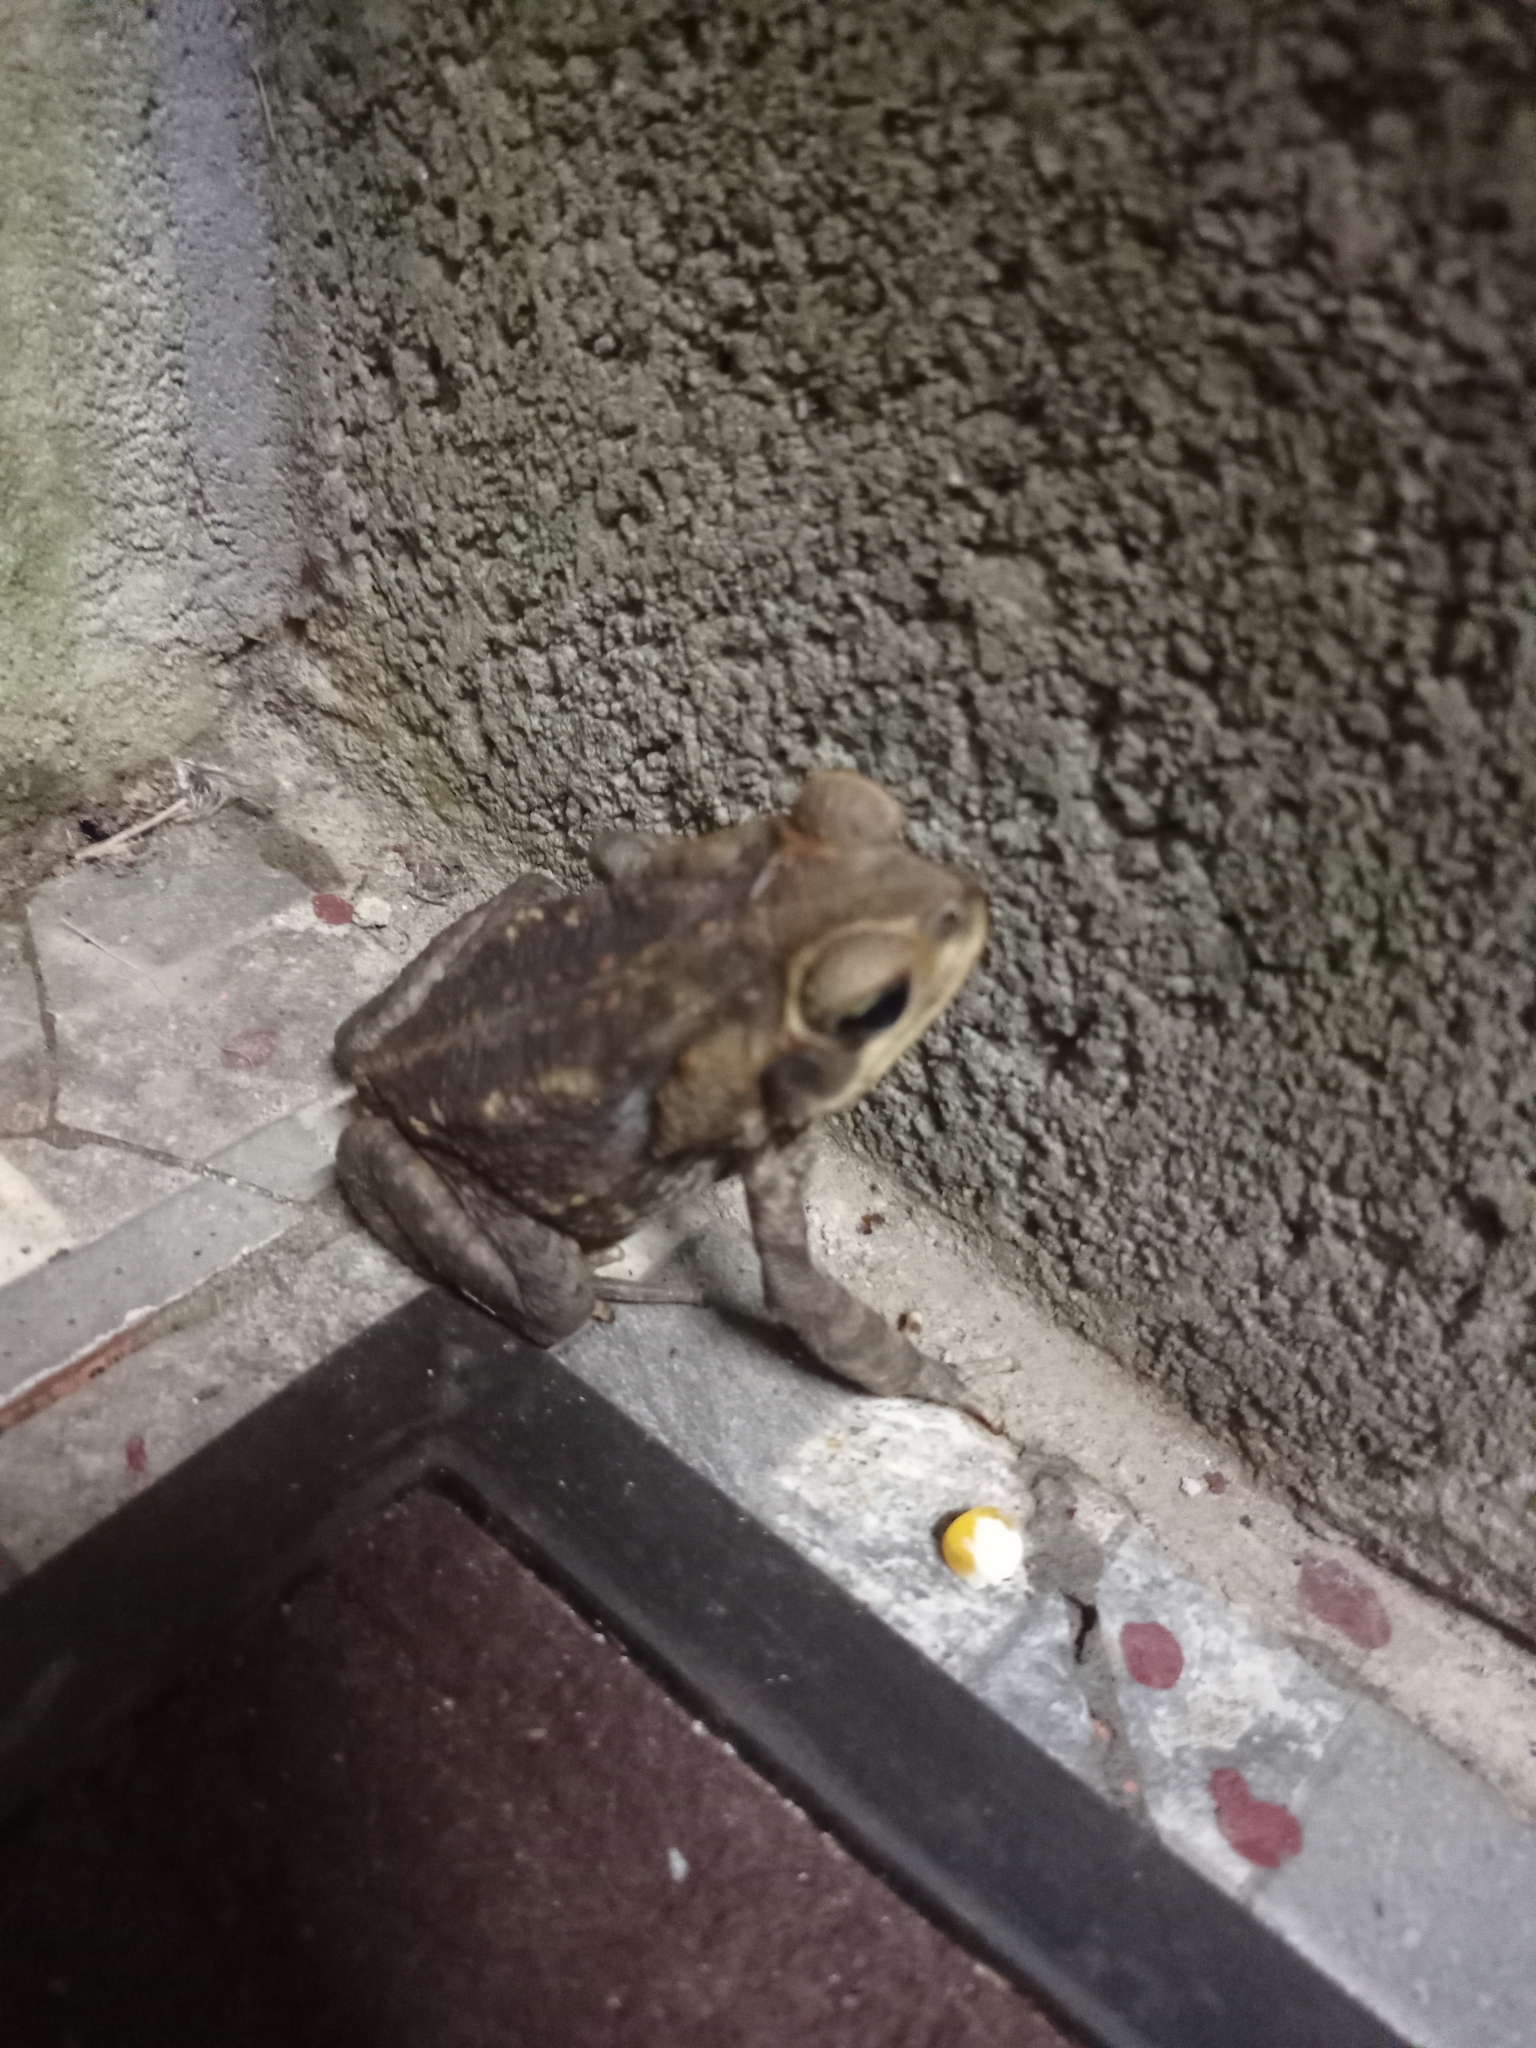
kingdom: Animalia
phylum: Chordata
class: Amphibia
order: Anura
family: Bufonidae
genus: Rhinella
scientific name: Rhinella horribilis
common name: Mesoamerican cane toad
